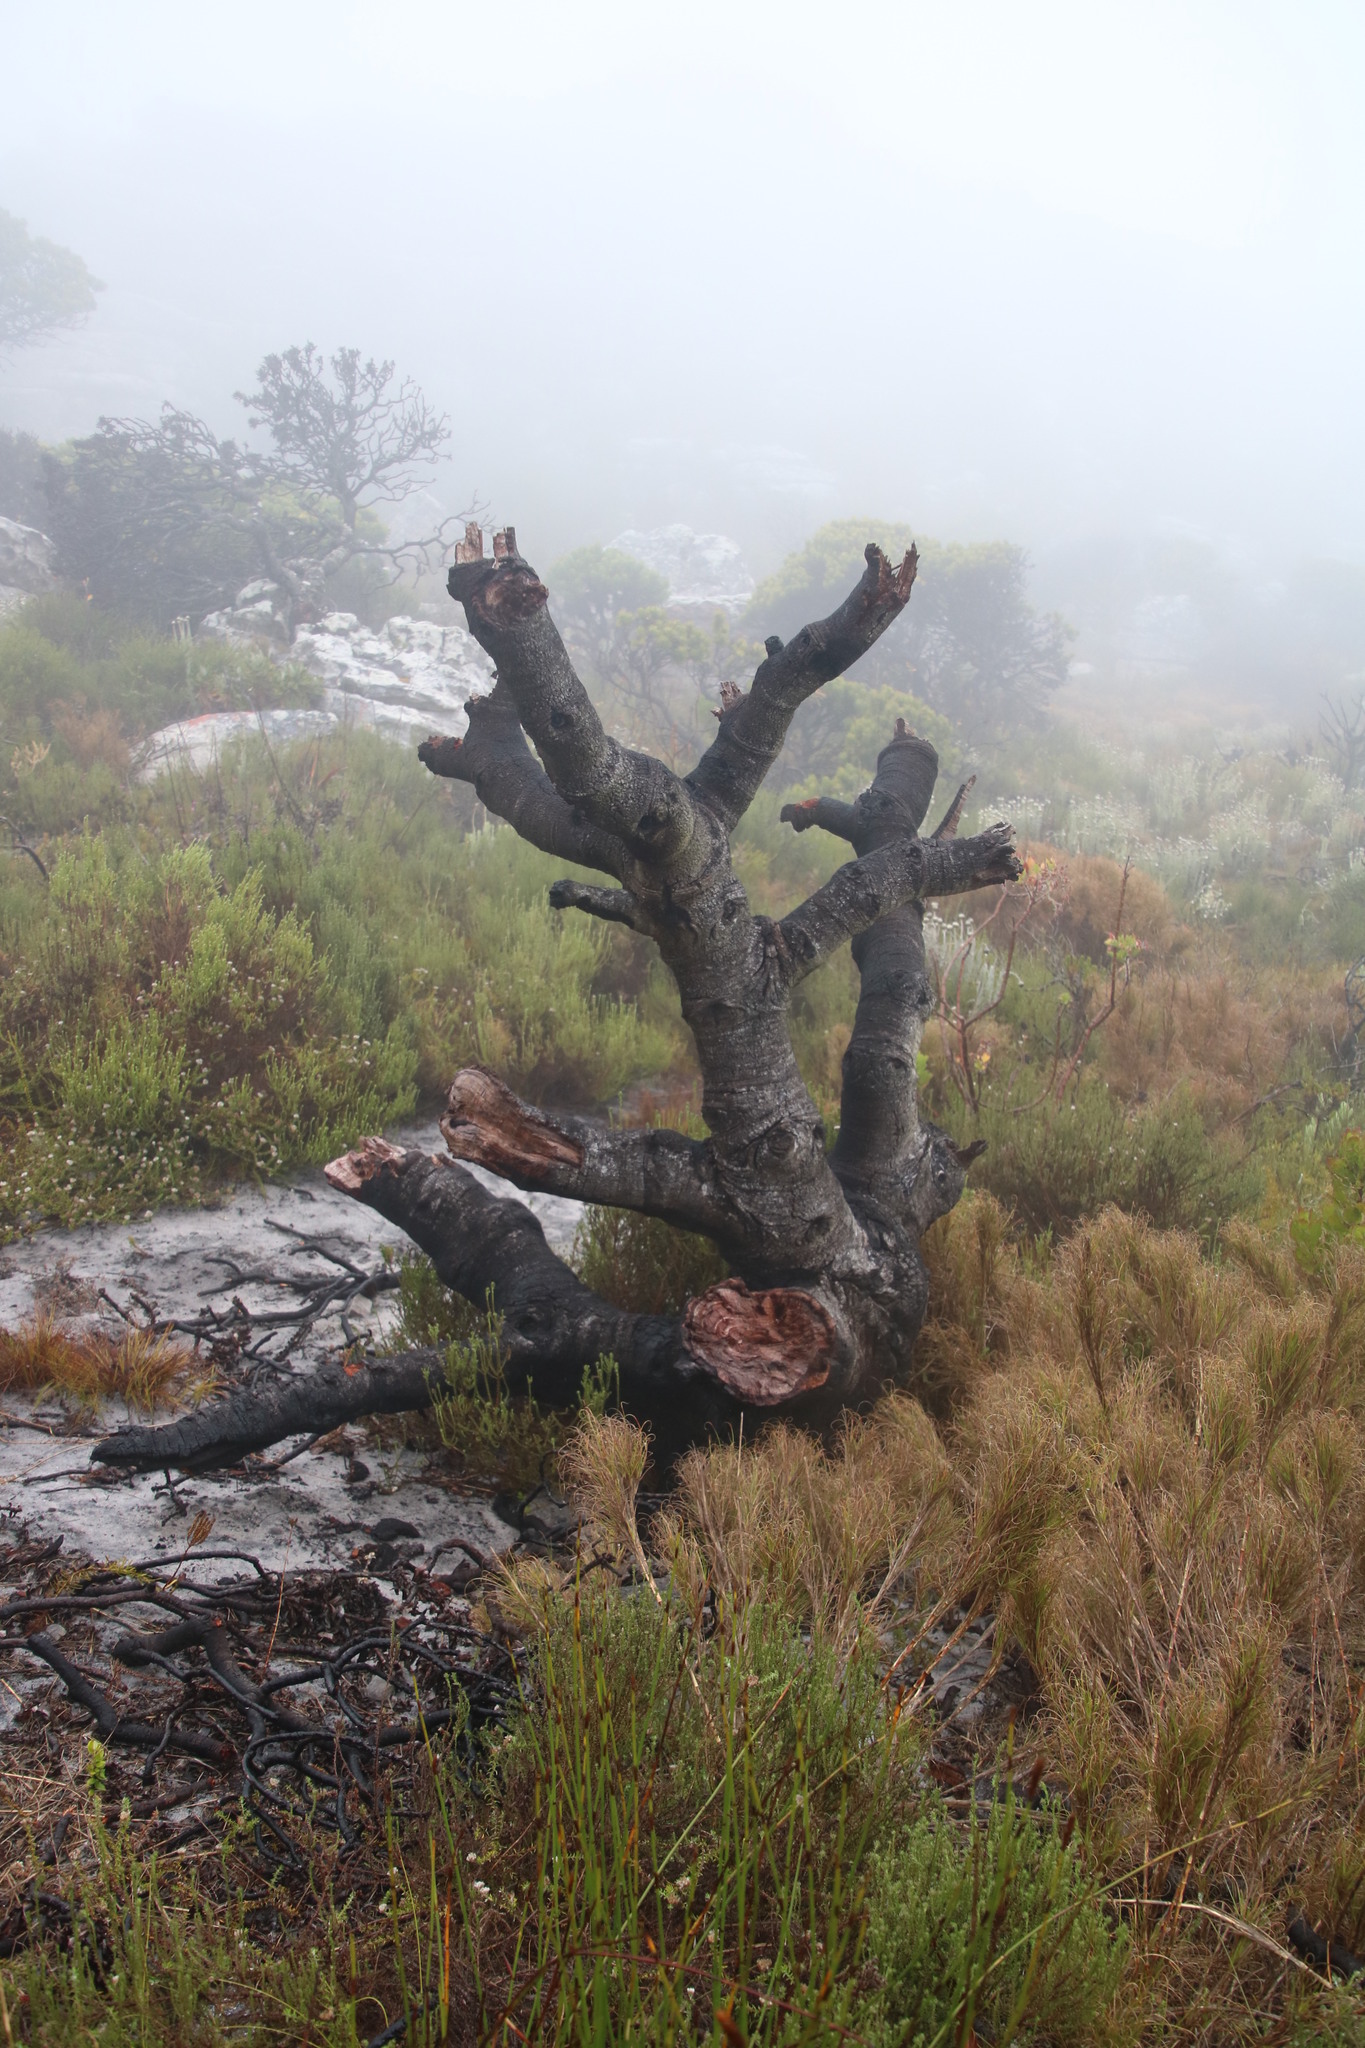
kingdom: Plantae
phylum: Tracheophyta
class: Magnoliopsida
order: Proteales
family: Proteaceae
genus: Mimetes
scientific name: Mimetes fimbriifolius
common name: Fringed bottlebrush
